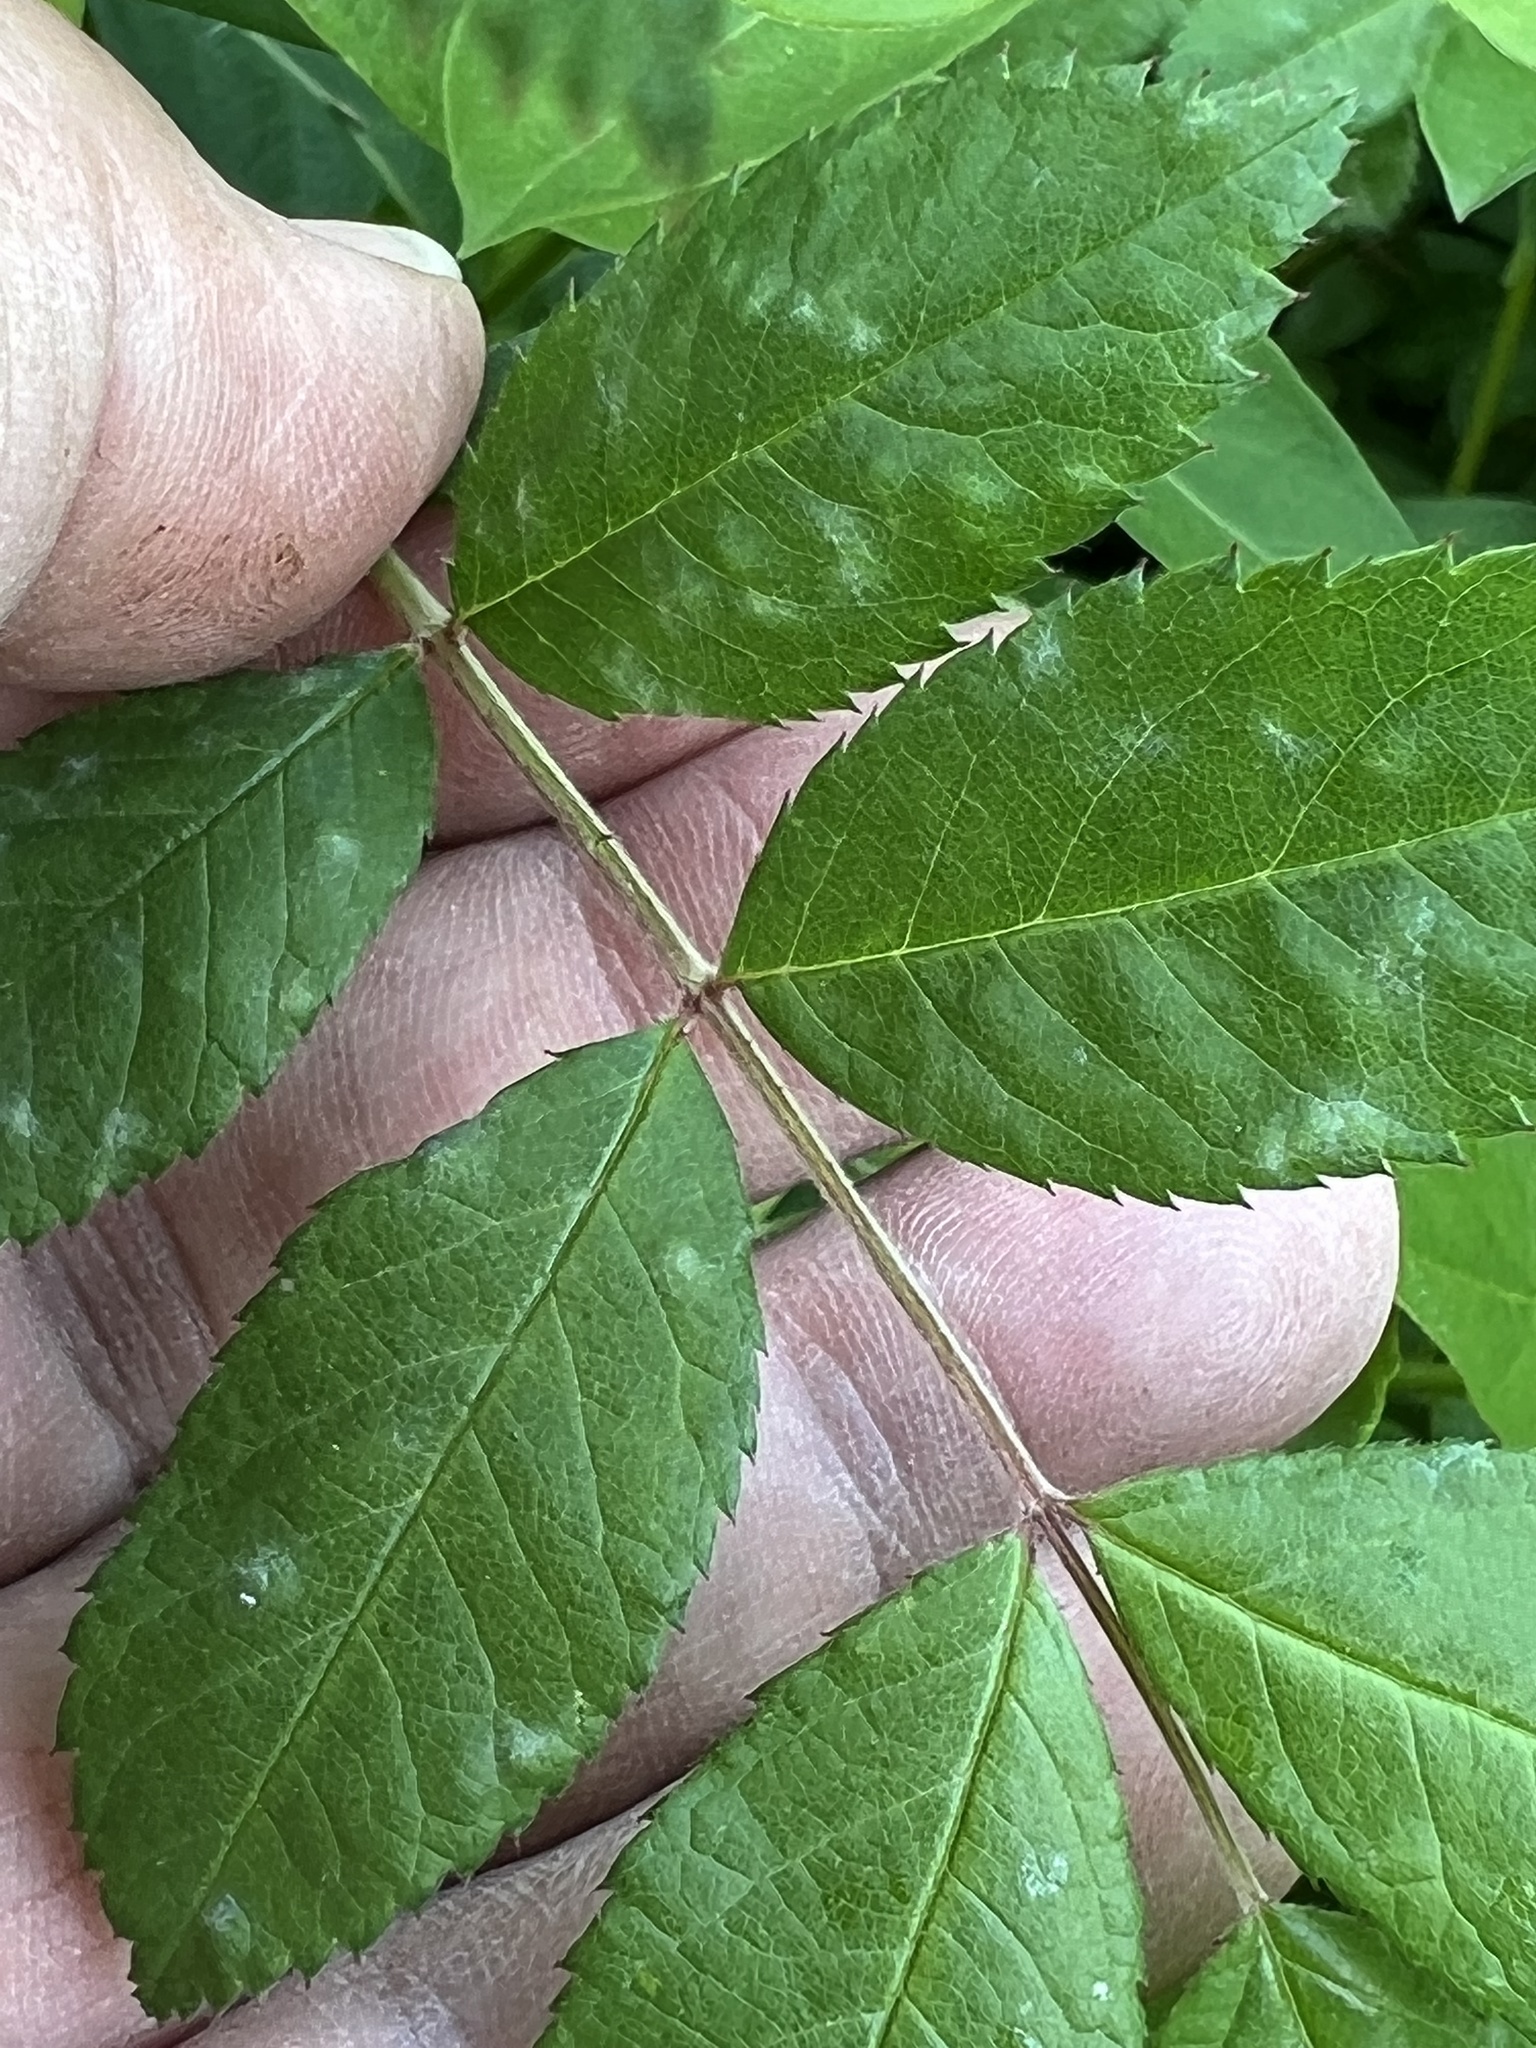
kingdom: Fungi
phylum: Ascomycota
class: Leotiomycetes
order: Helotiales
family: Erysiphaceae
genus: Podosphaera
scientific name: Podosphaera pannosa
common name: Rose mildew
